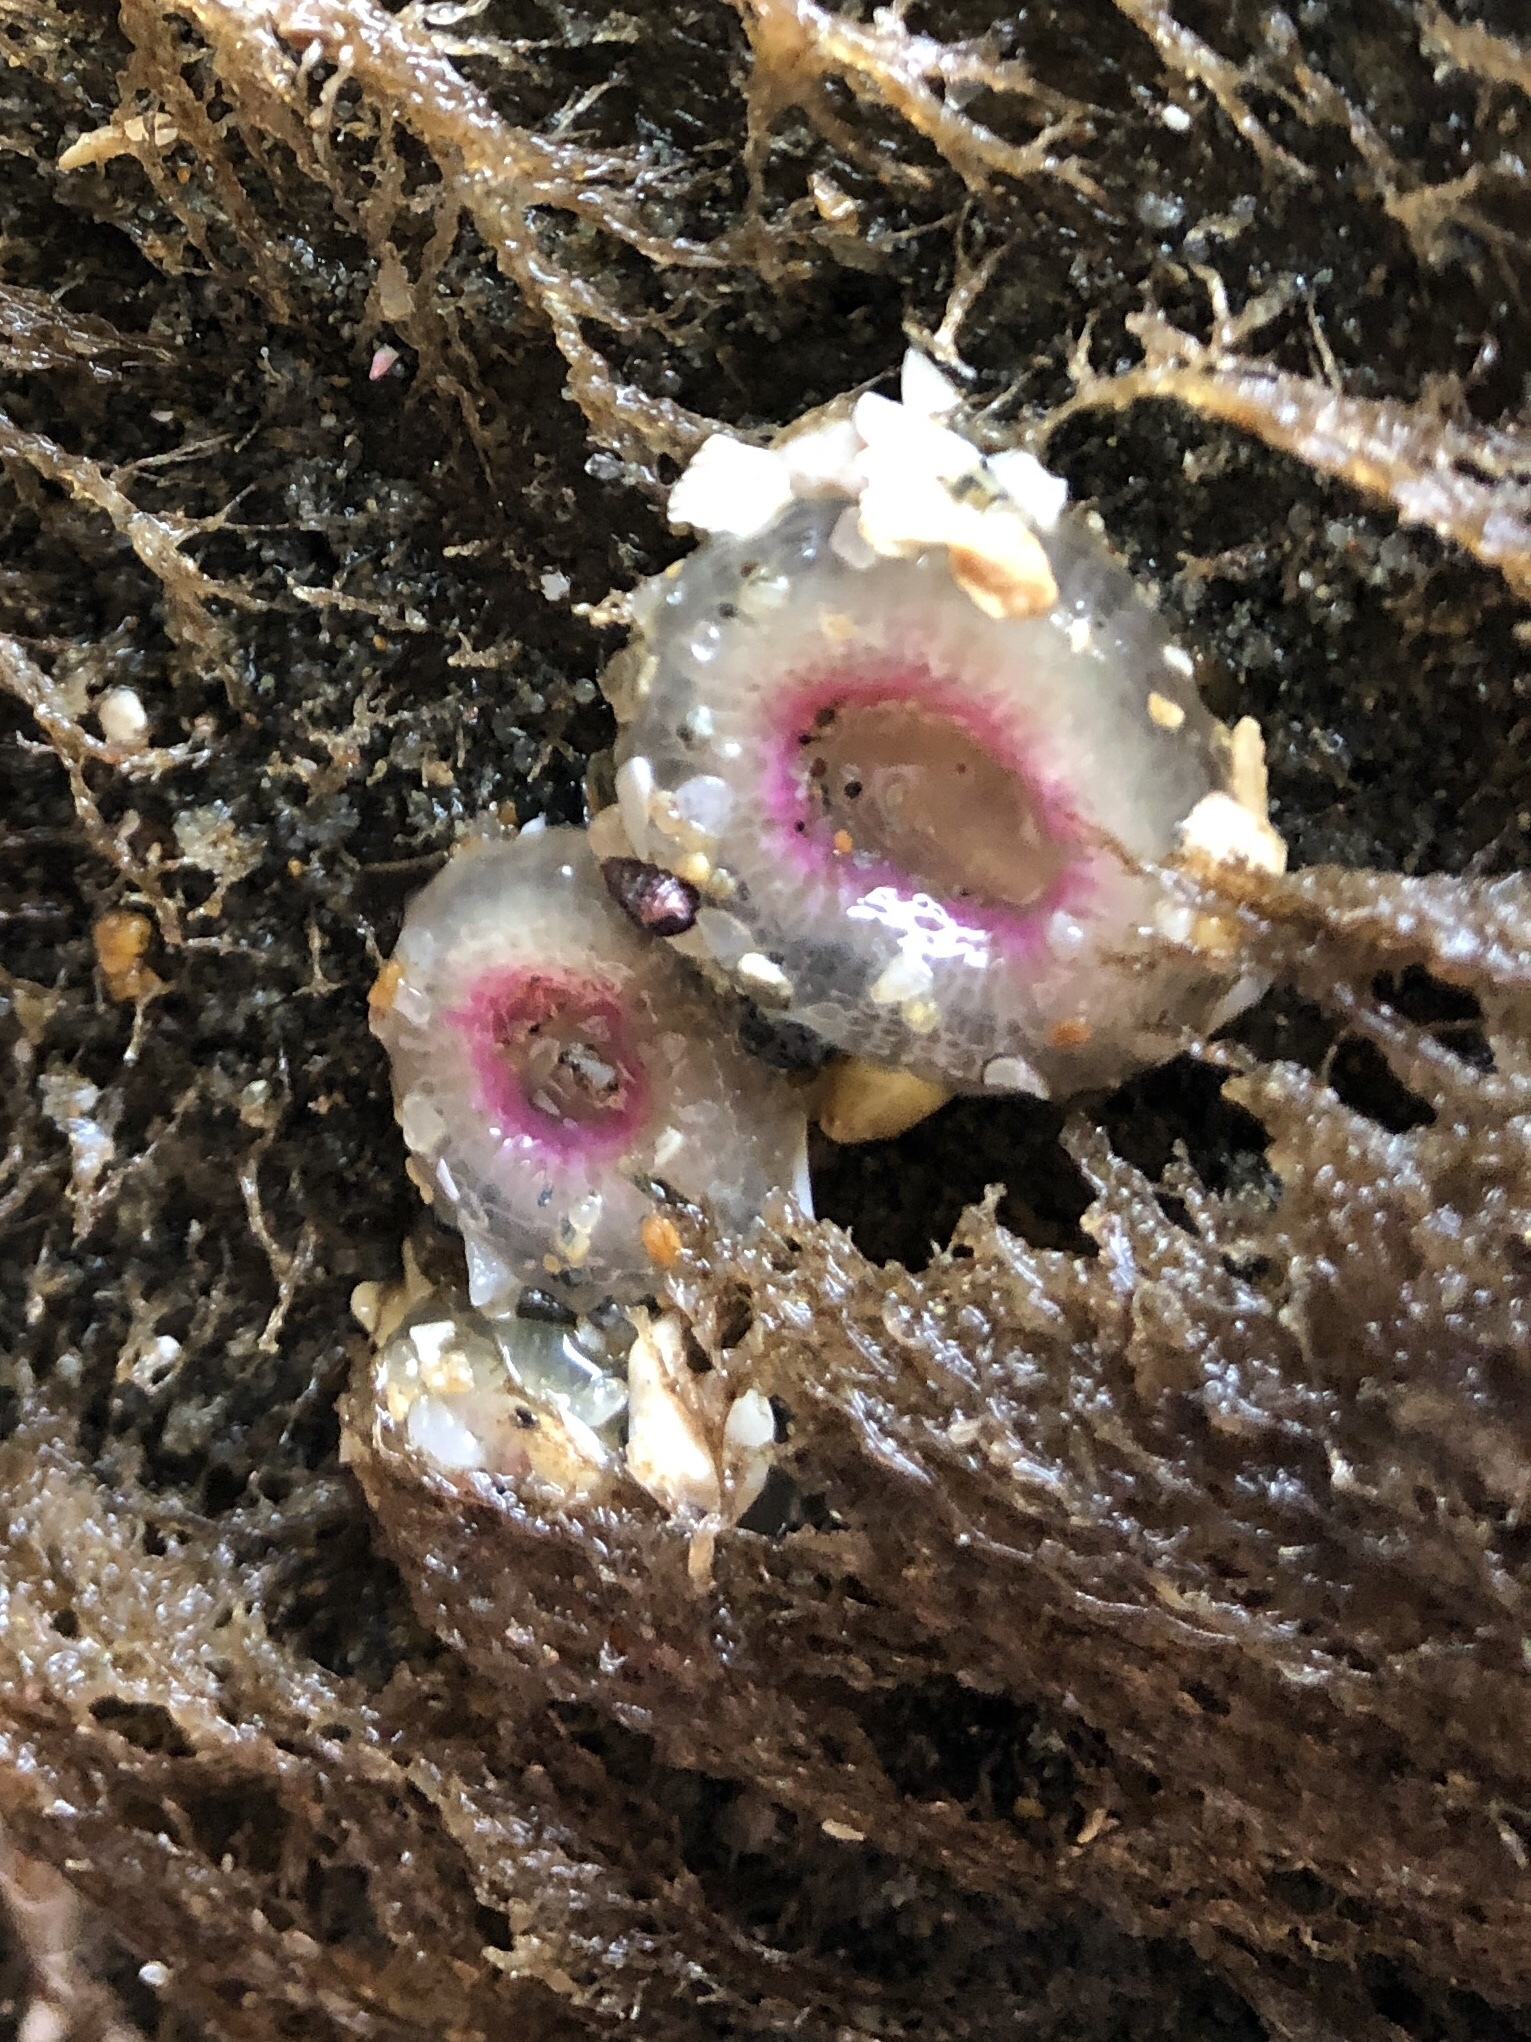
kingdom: Animalia
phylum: Cnidaria
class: Anthozoa
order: Actiniaria
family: Actiniidae
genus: Anthopleura
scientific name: Anthopleura elegantissima
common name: Clonal anemone
